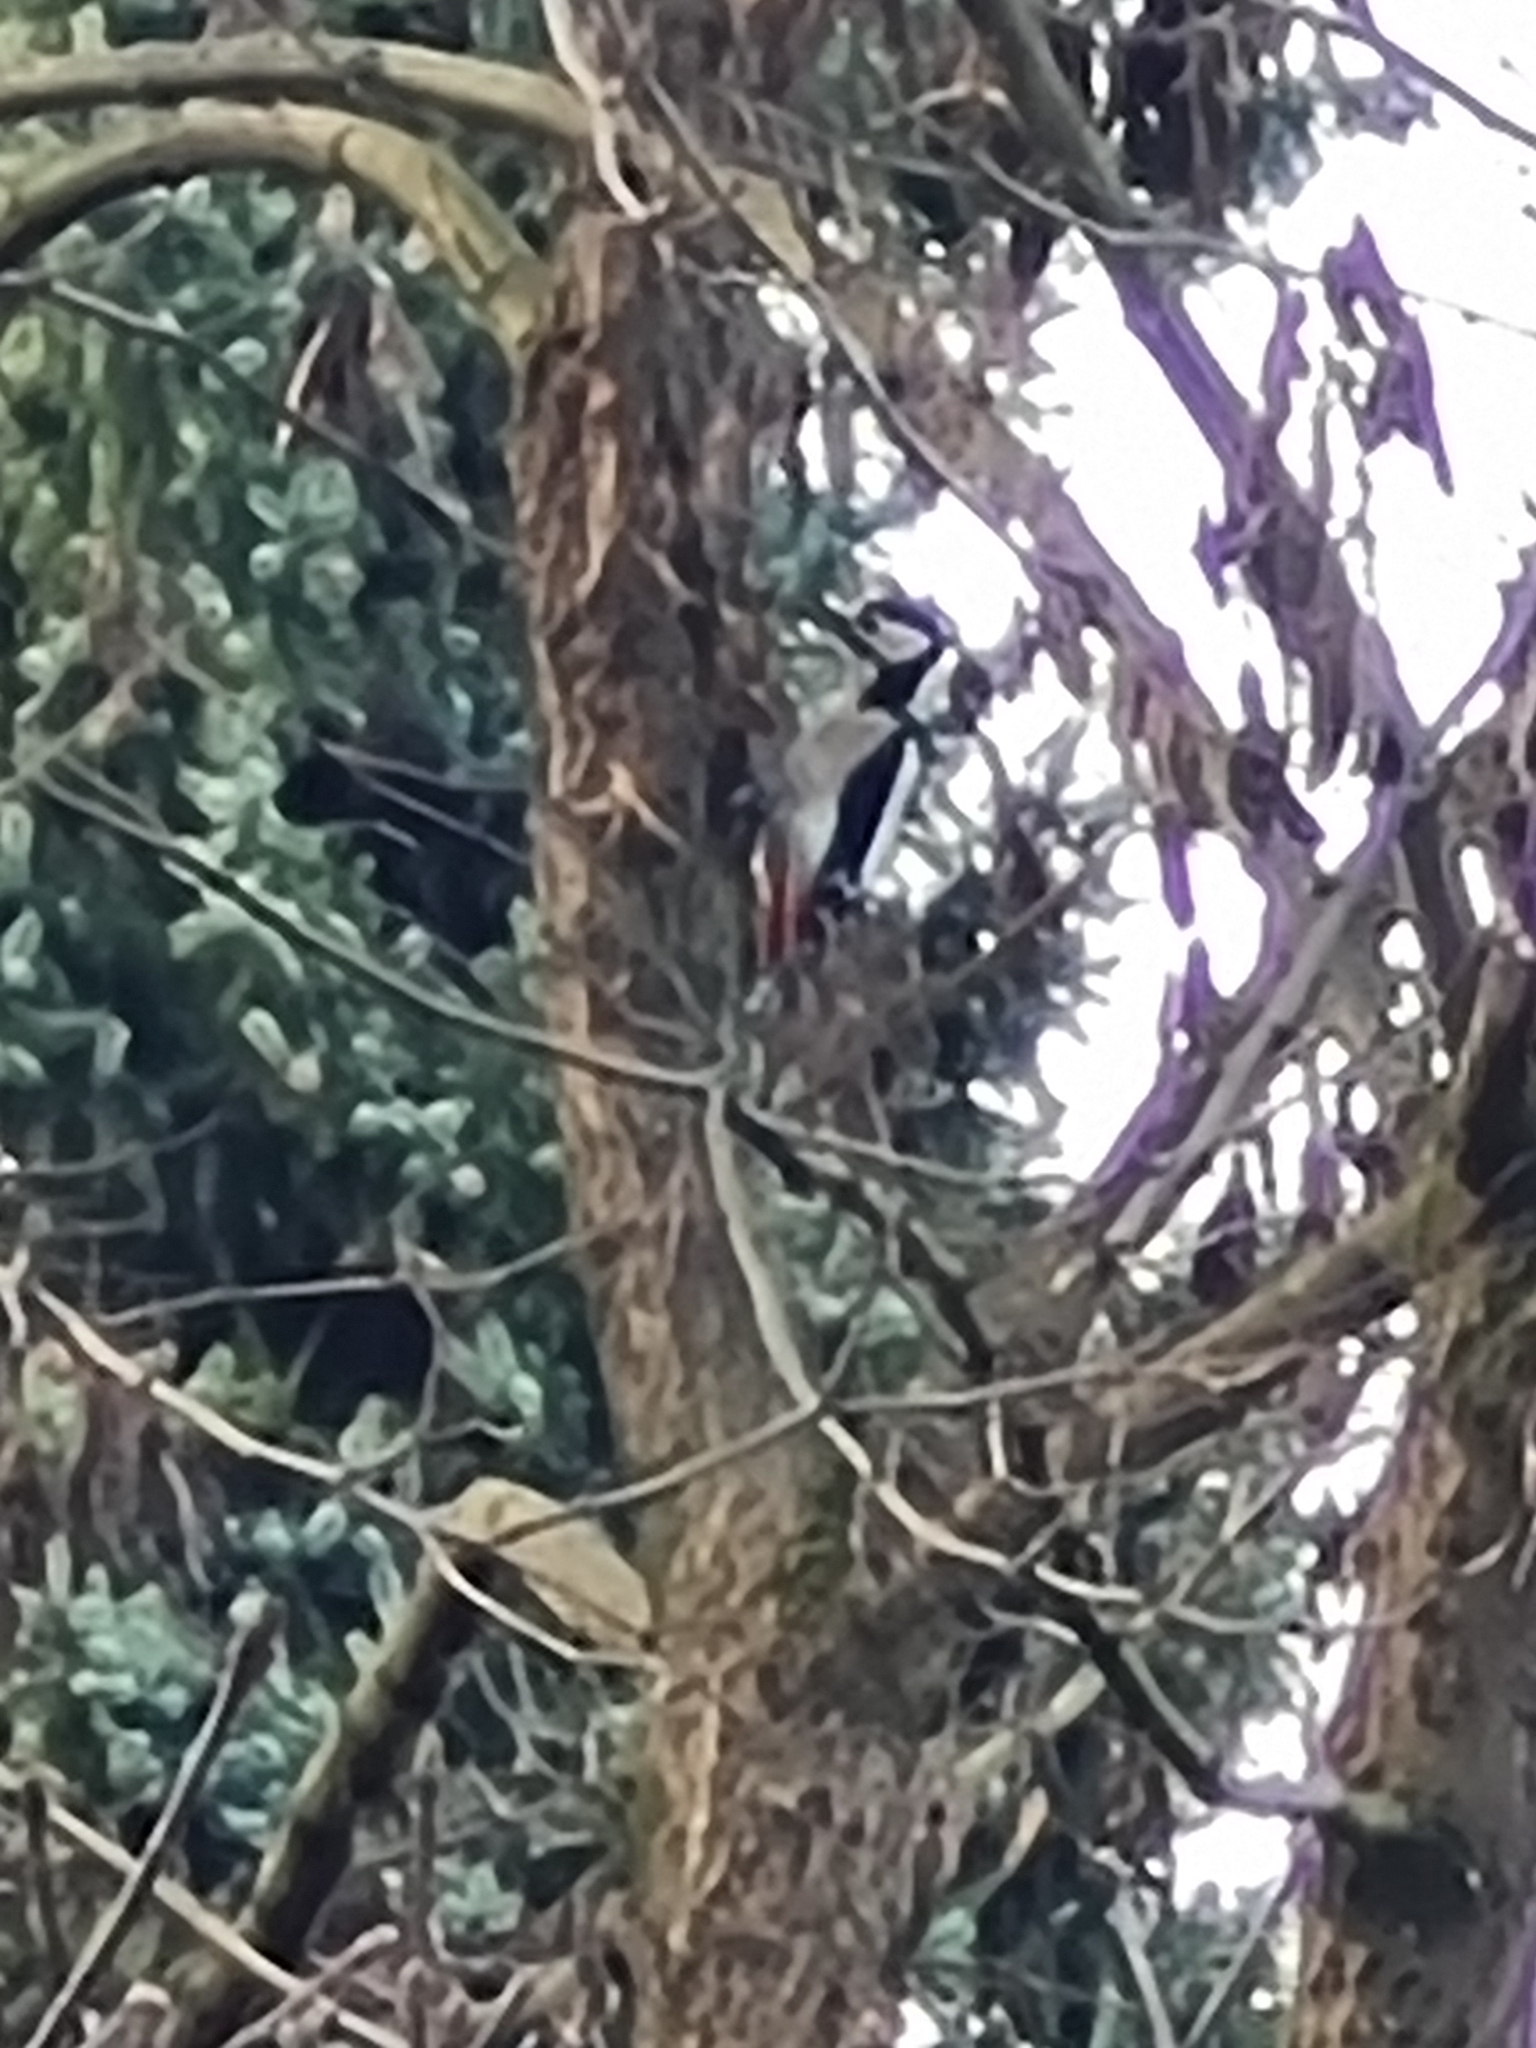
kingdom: Animalia
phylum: Chordata
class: Aves
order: Piciformes
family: Picidae
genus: Dendrocopos
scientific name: Dendrocopos major
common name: Great spotted woodpecker
